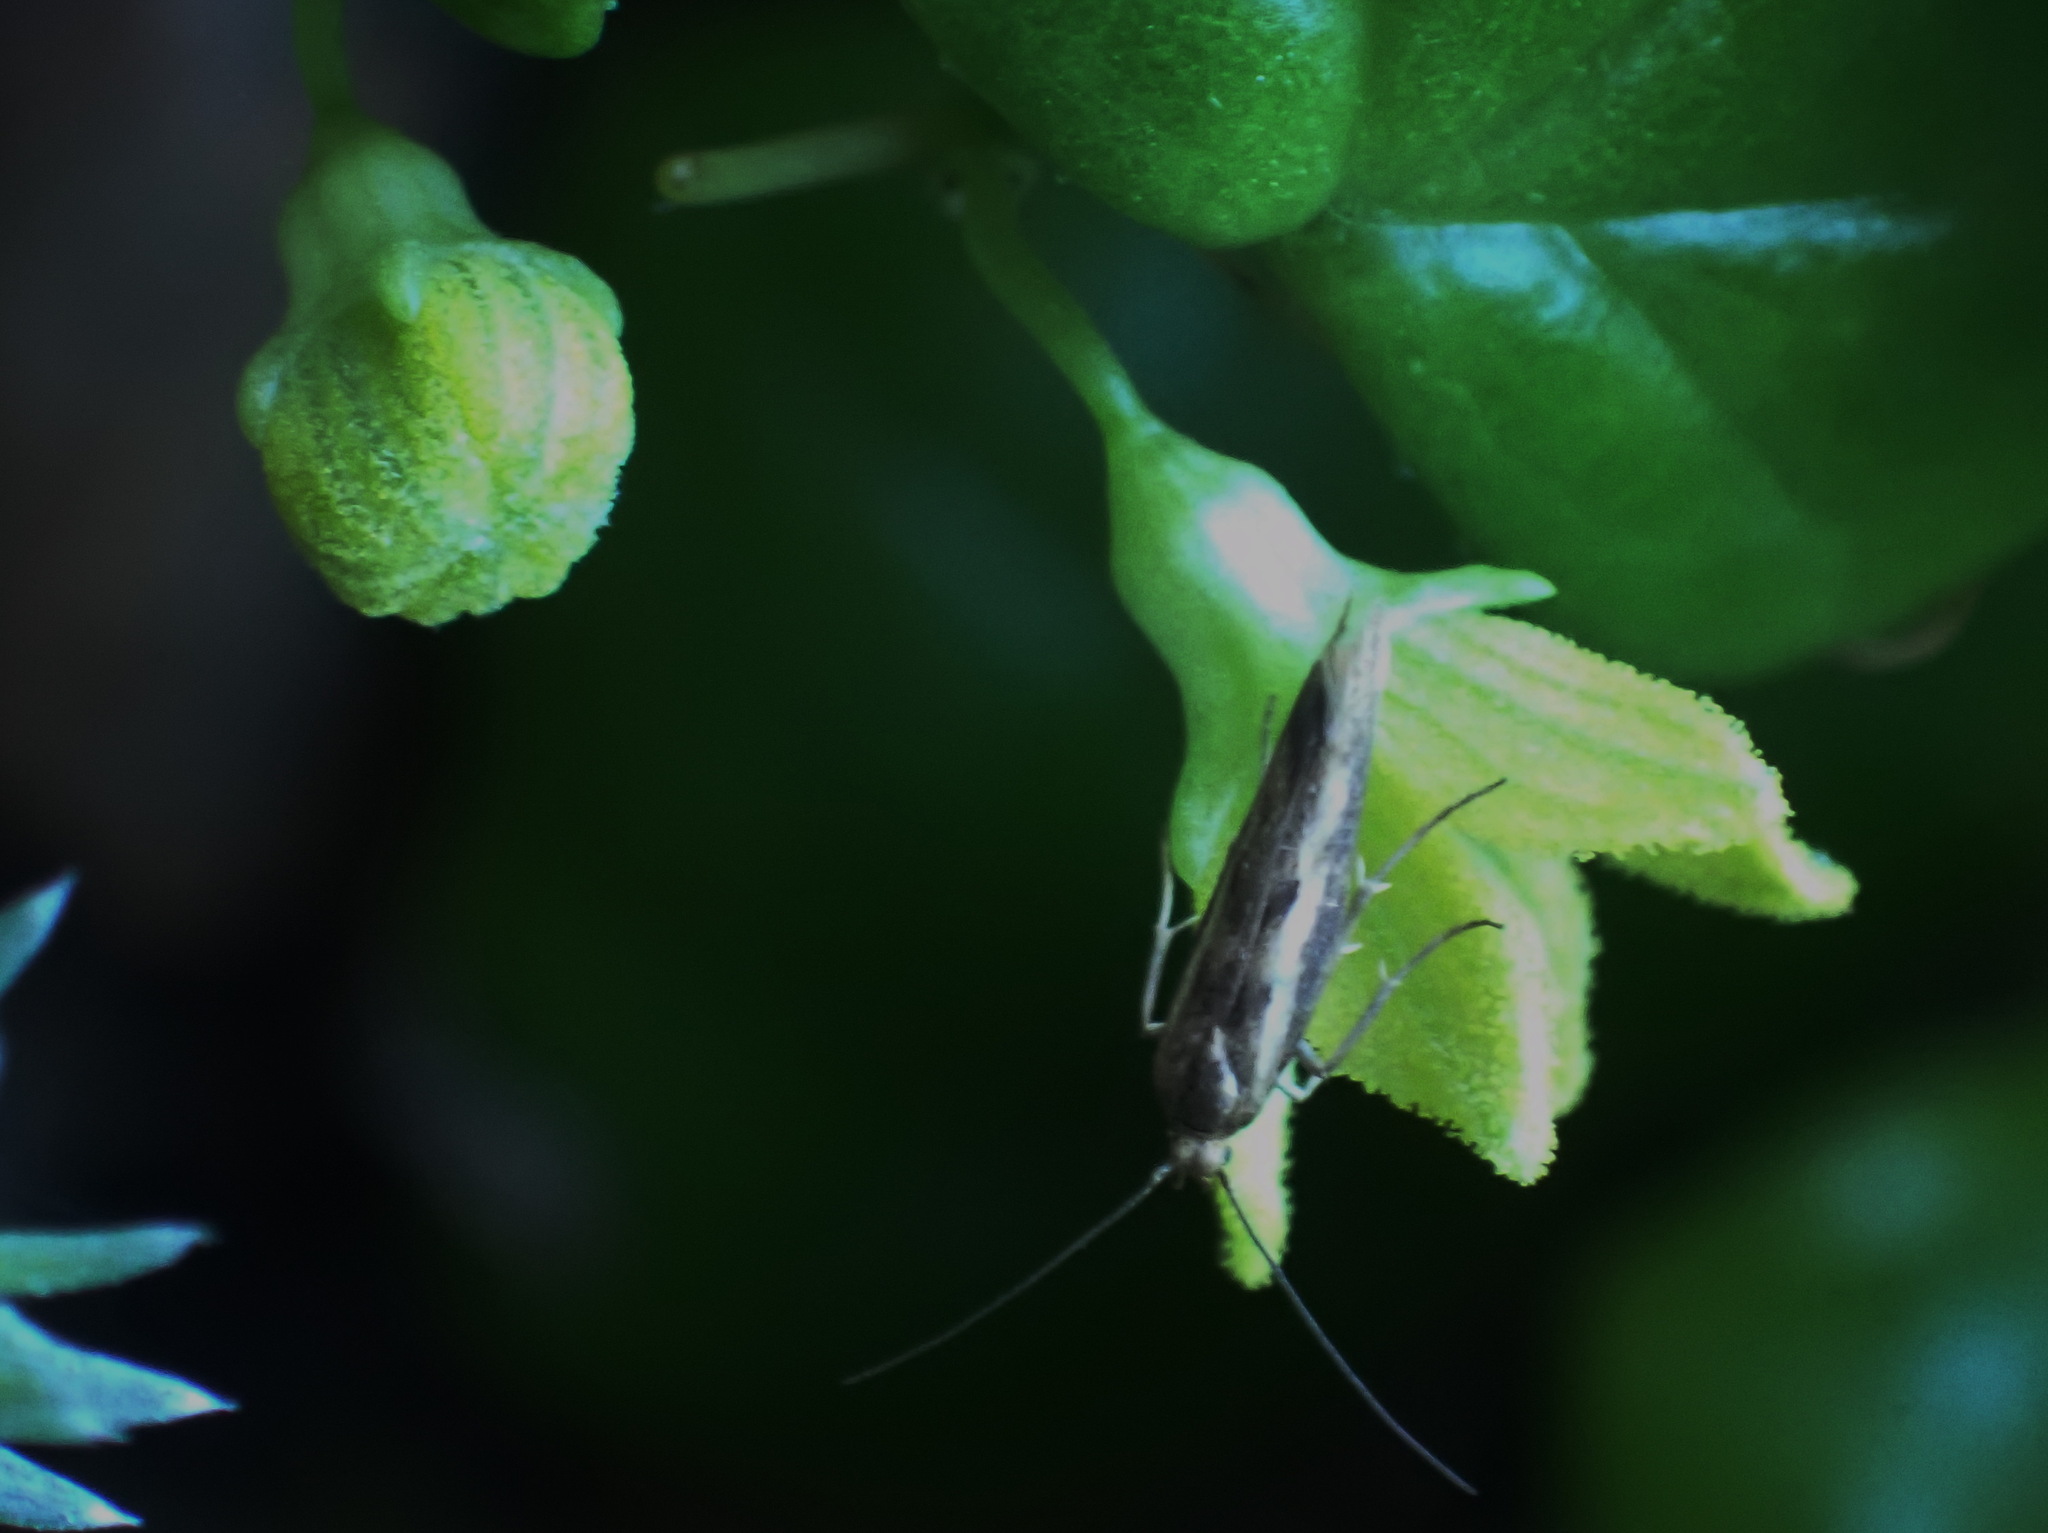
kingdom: Plantae
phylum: Tracheophyta
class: Magnoliopsida
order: Cucurbitales
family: Cucurbitaceae
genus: Kedrostis
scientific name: Kedrostis nana
